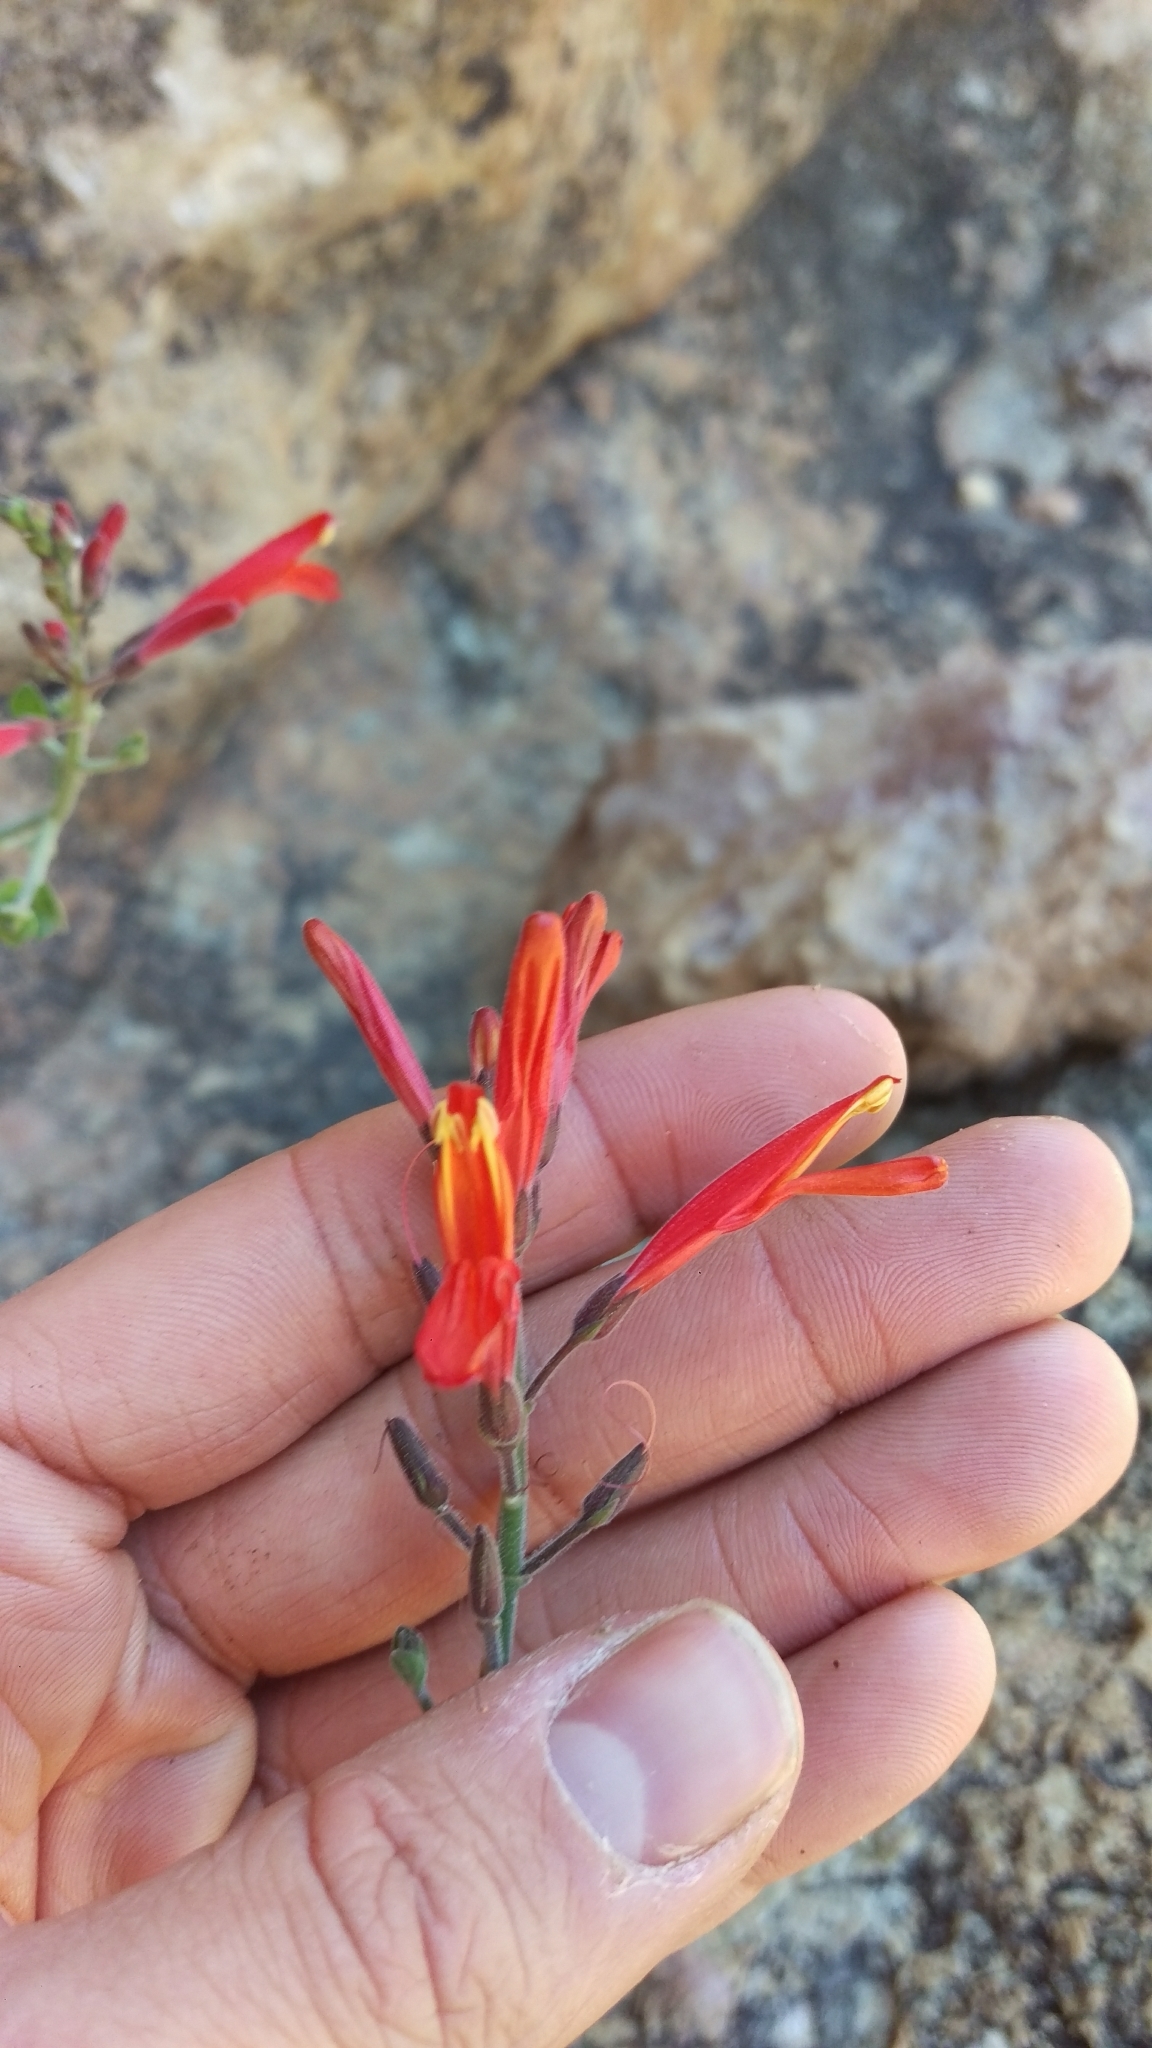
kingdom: Plantae
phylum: Tracheophyta
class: Magnoliopsida
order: Lamiales
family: Acanthaceae
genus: Justicia
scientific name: Justicia californica
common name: Chuparosa-honeysuckle
